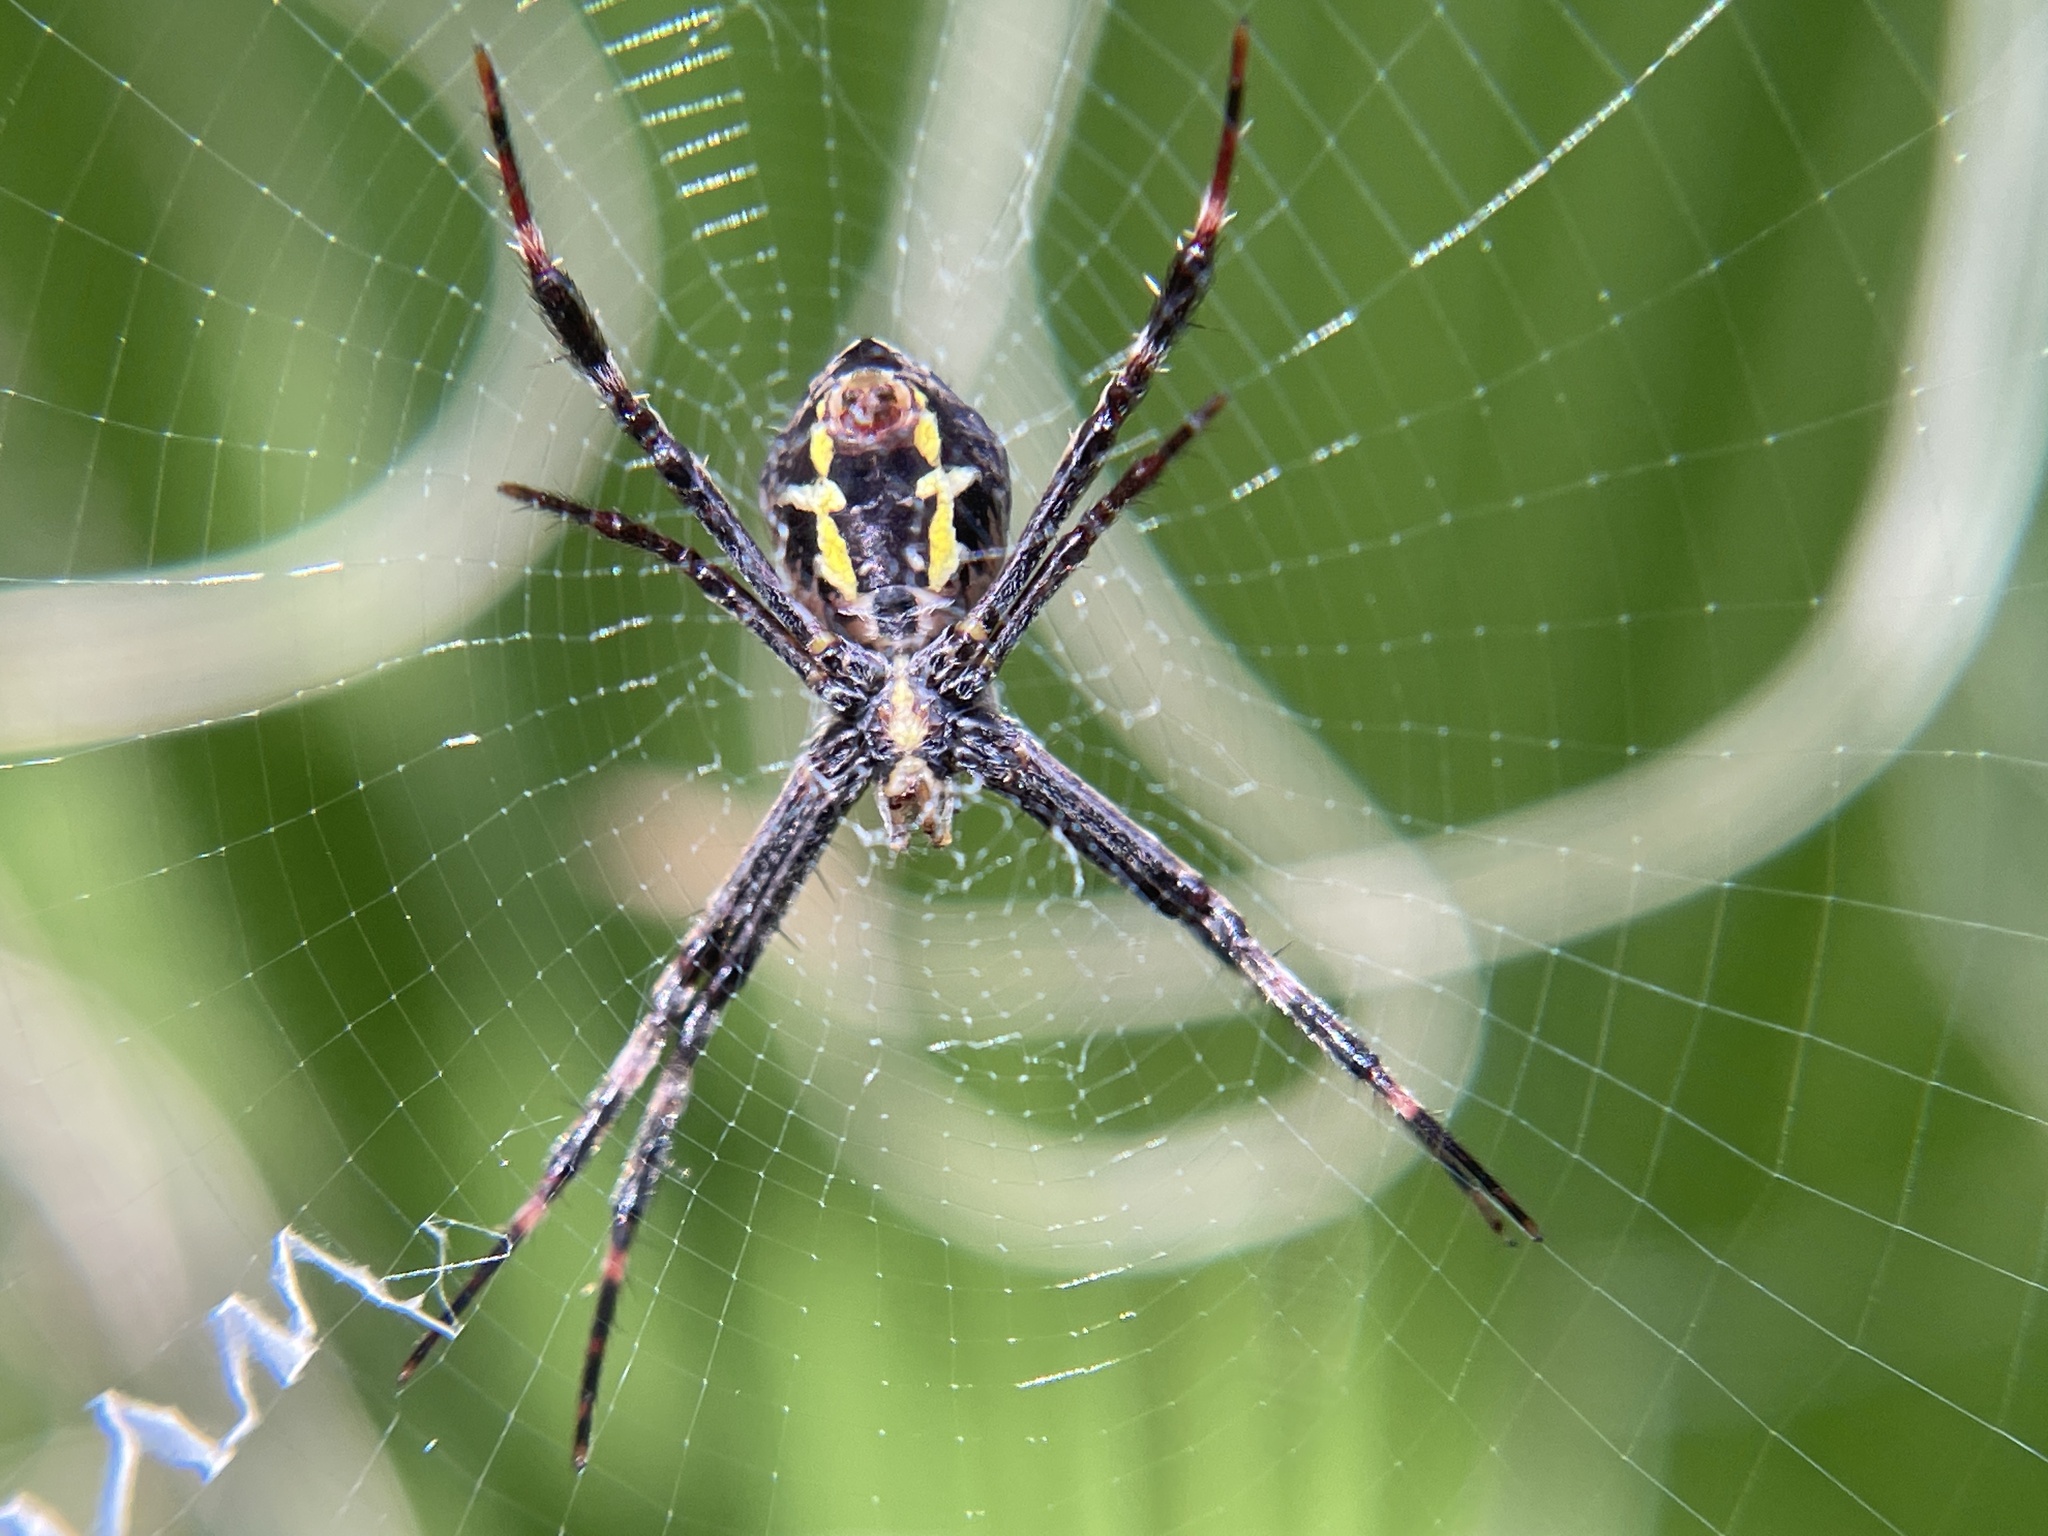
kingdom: Animalia
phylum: Arthropoda
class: Arachnida
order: Araneae
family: Araneidae
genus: Argiope
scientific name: Argiope appensa
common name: Garden spider
